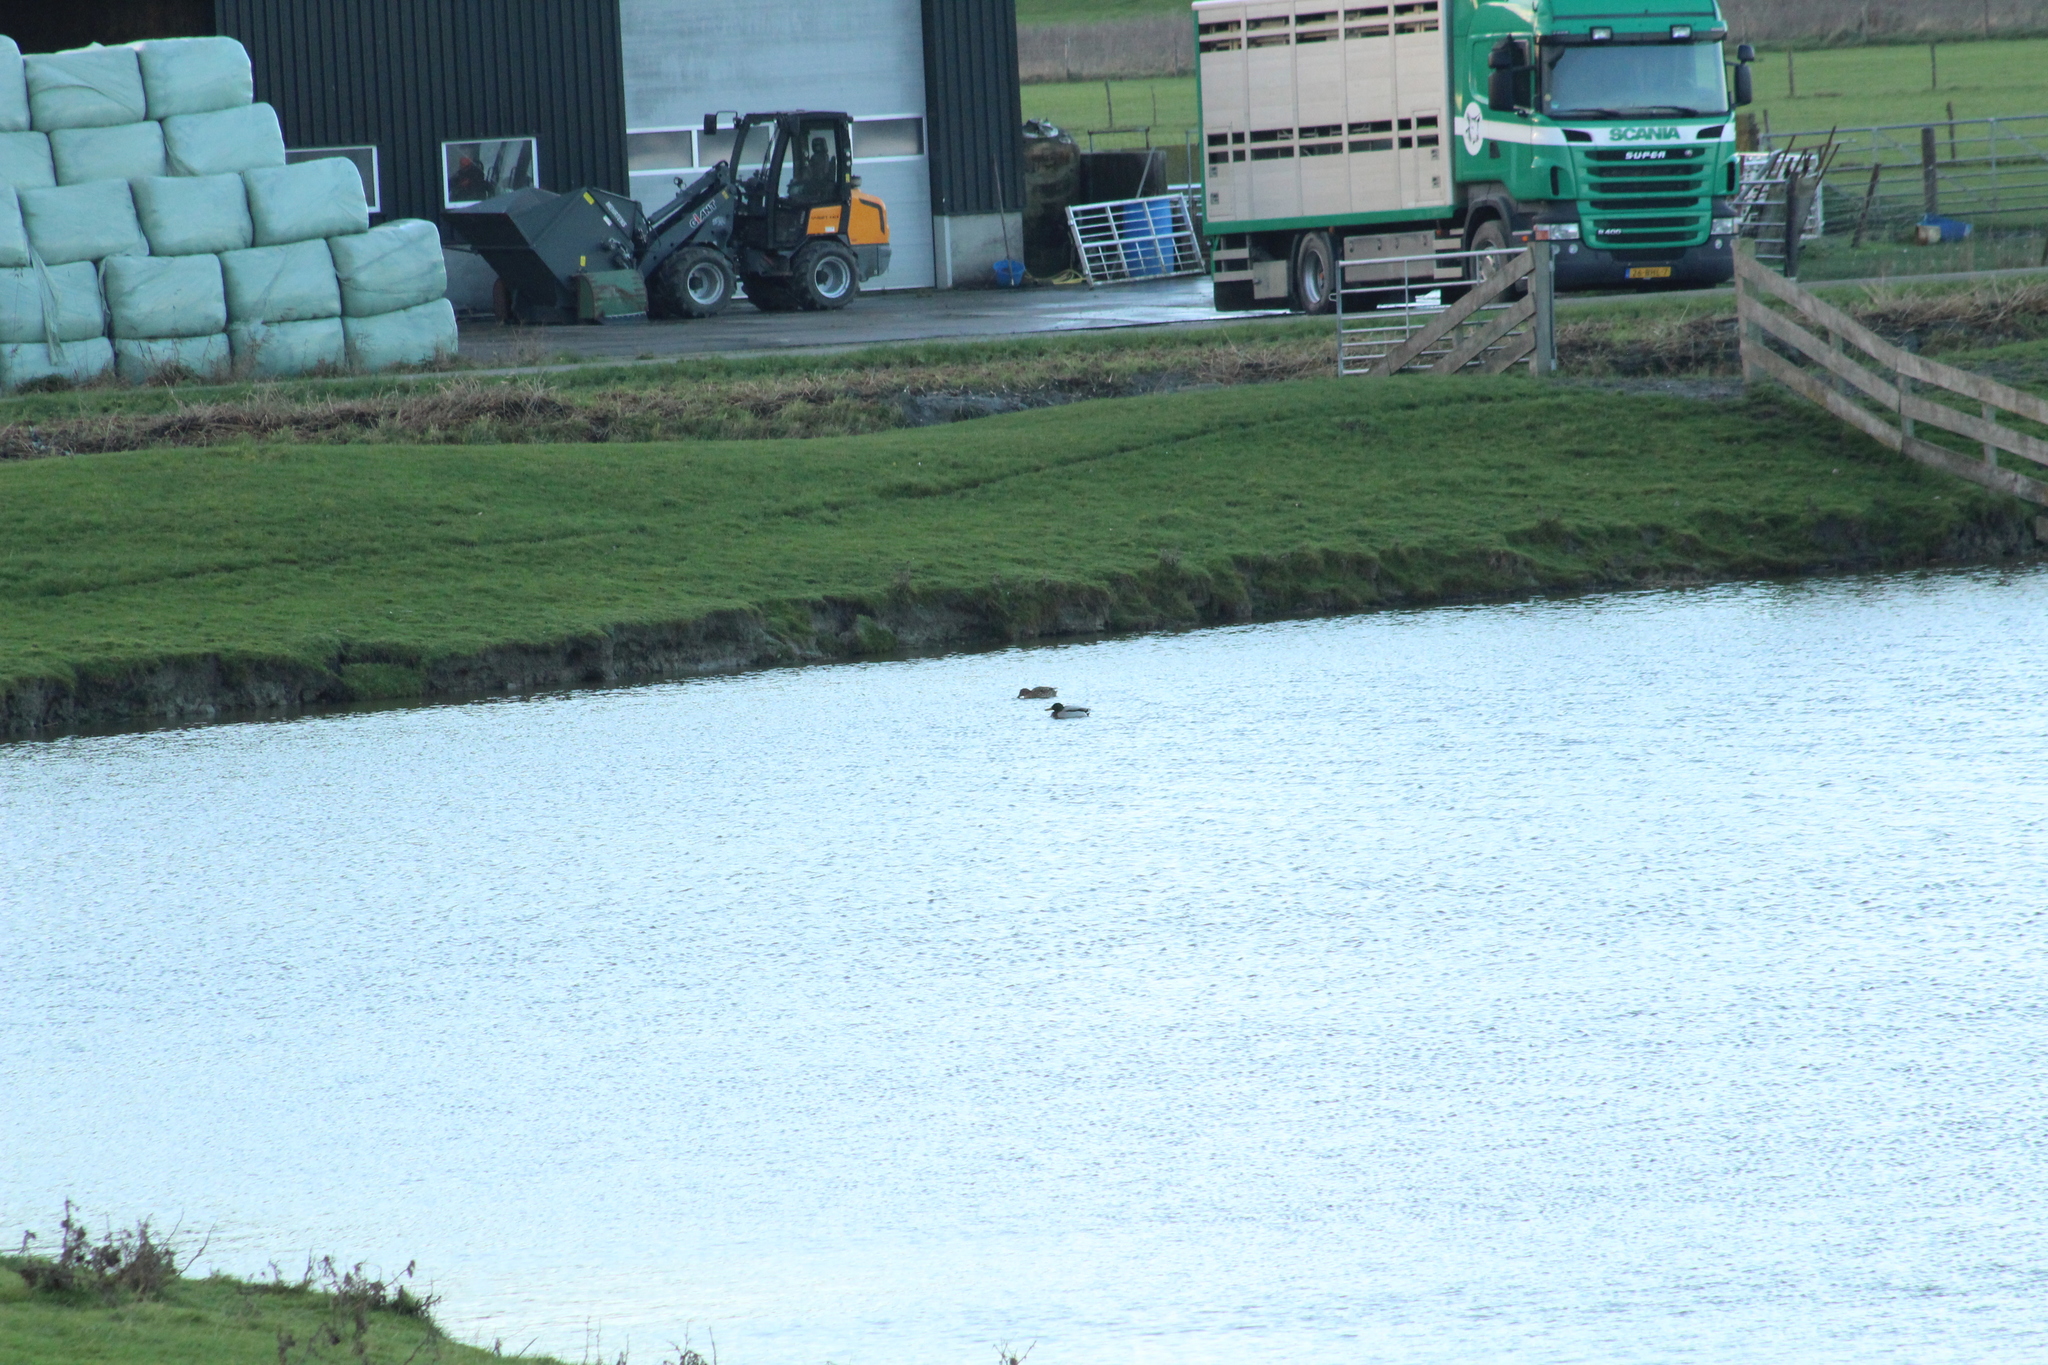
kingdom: Animalia
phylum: Chordata
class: Aves
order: Anseriformes
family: Anatidae
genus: Anas
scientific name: Anas platyrhynchos
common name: Mallard
